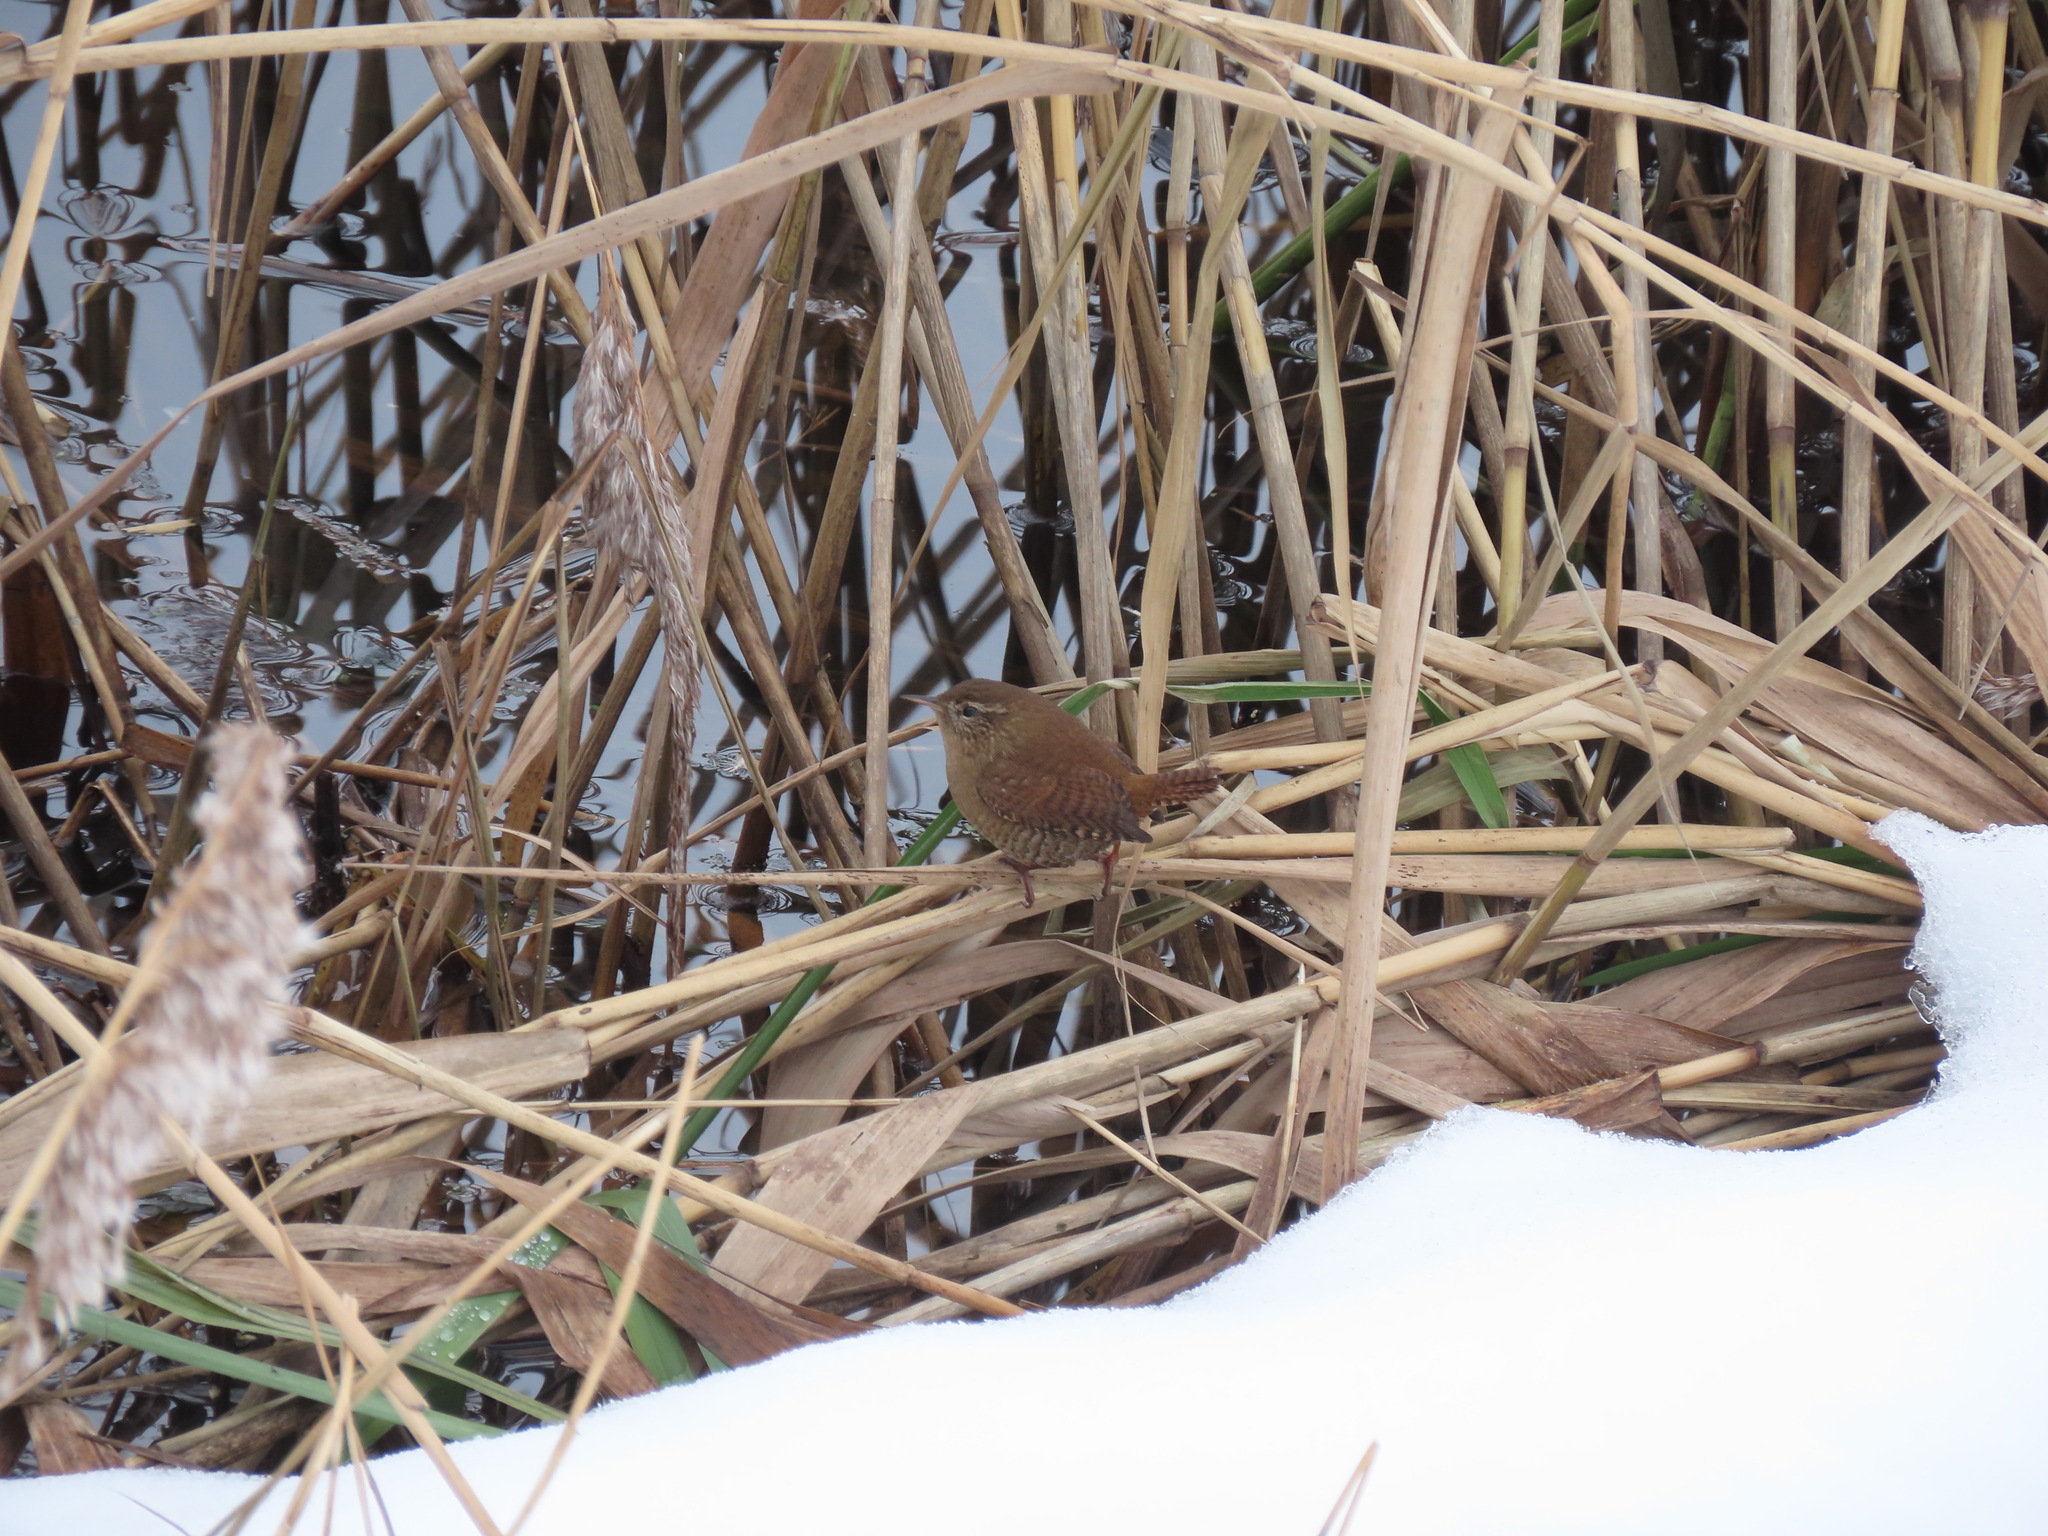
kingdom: Animalia
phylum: Chordata
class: Aves
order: Passeriformes
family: Troglodytidae
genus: Troglodytes
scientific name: Troglodytes troglodytes
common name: Eurasian wren
